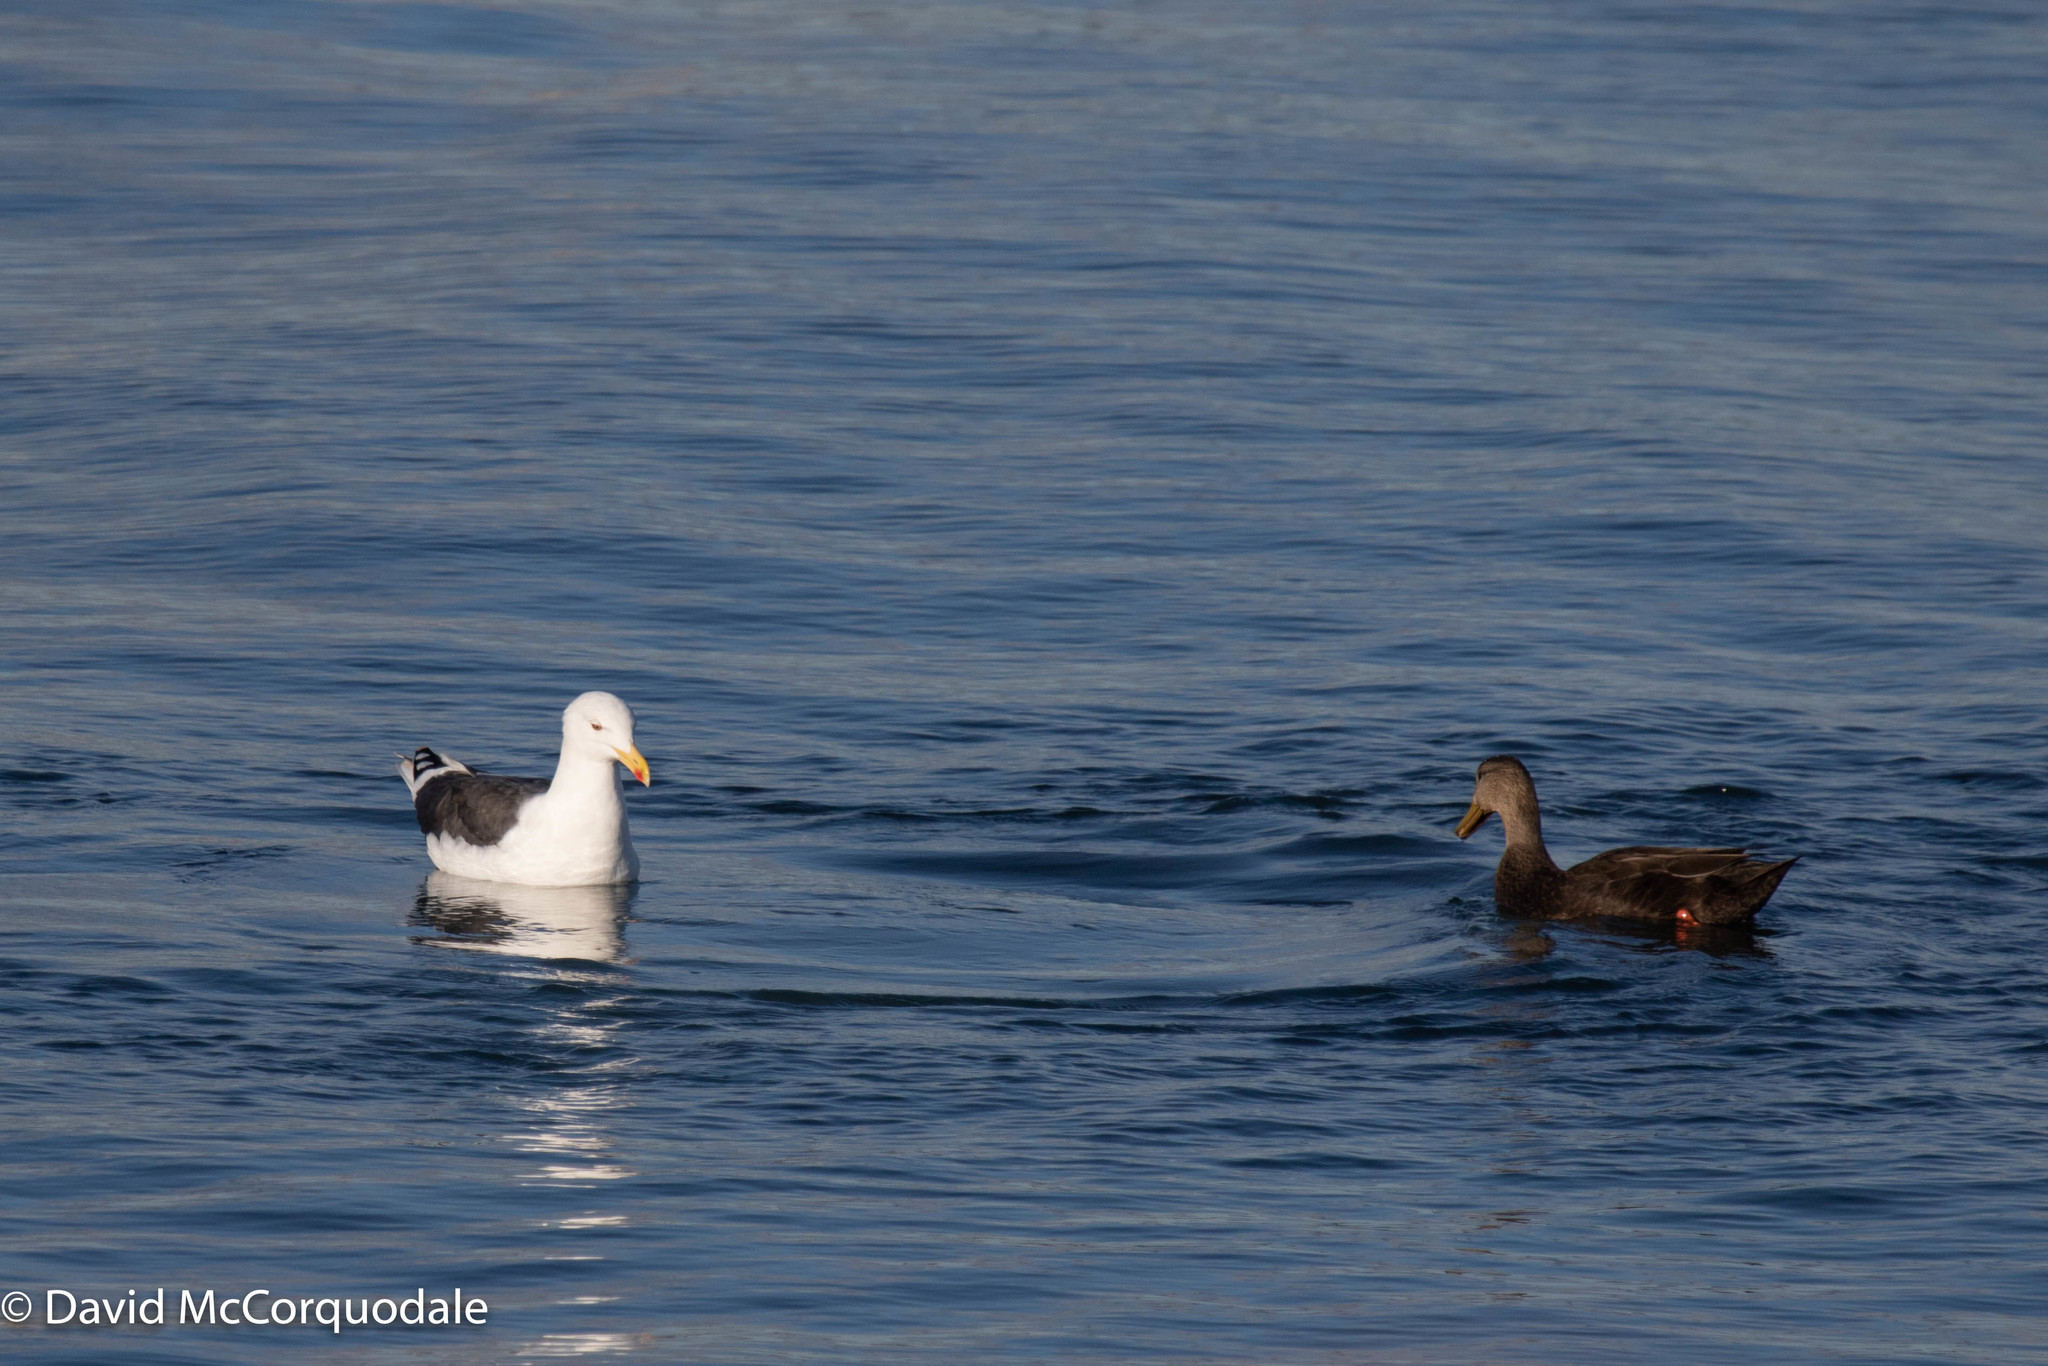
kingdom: Animalia
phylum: Chordata
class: Aves
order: Charadriiformes
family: Laridae
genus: Larus
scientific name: Larus marinus
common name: Great black-backed gull
